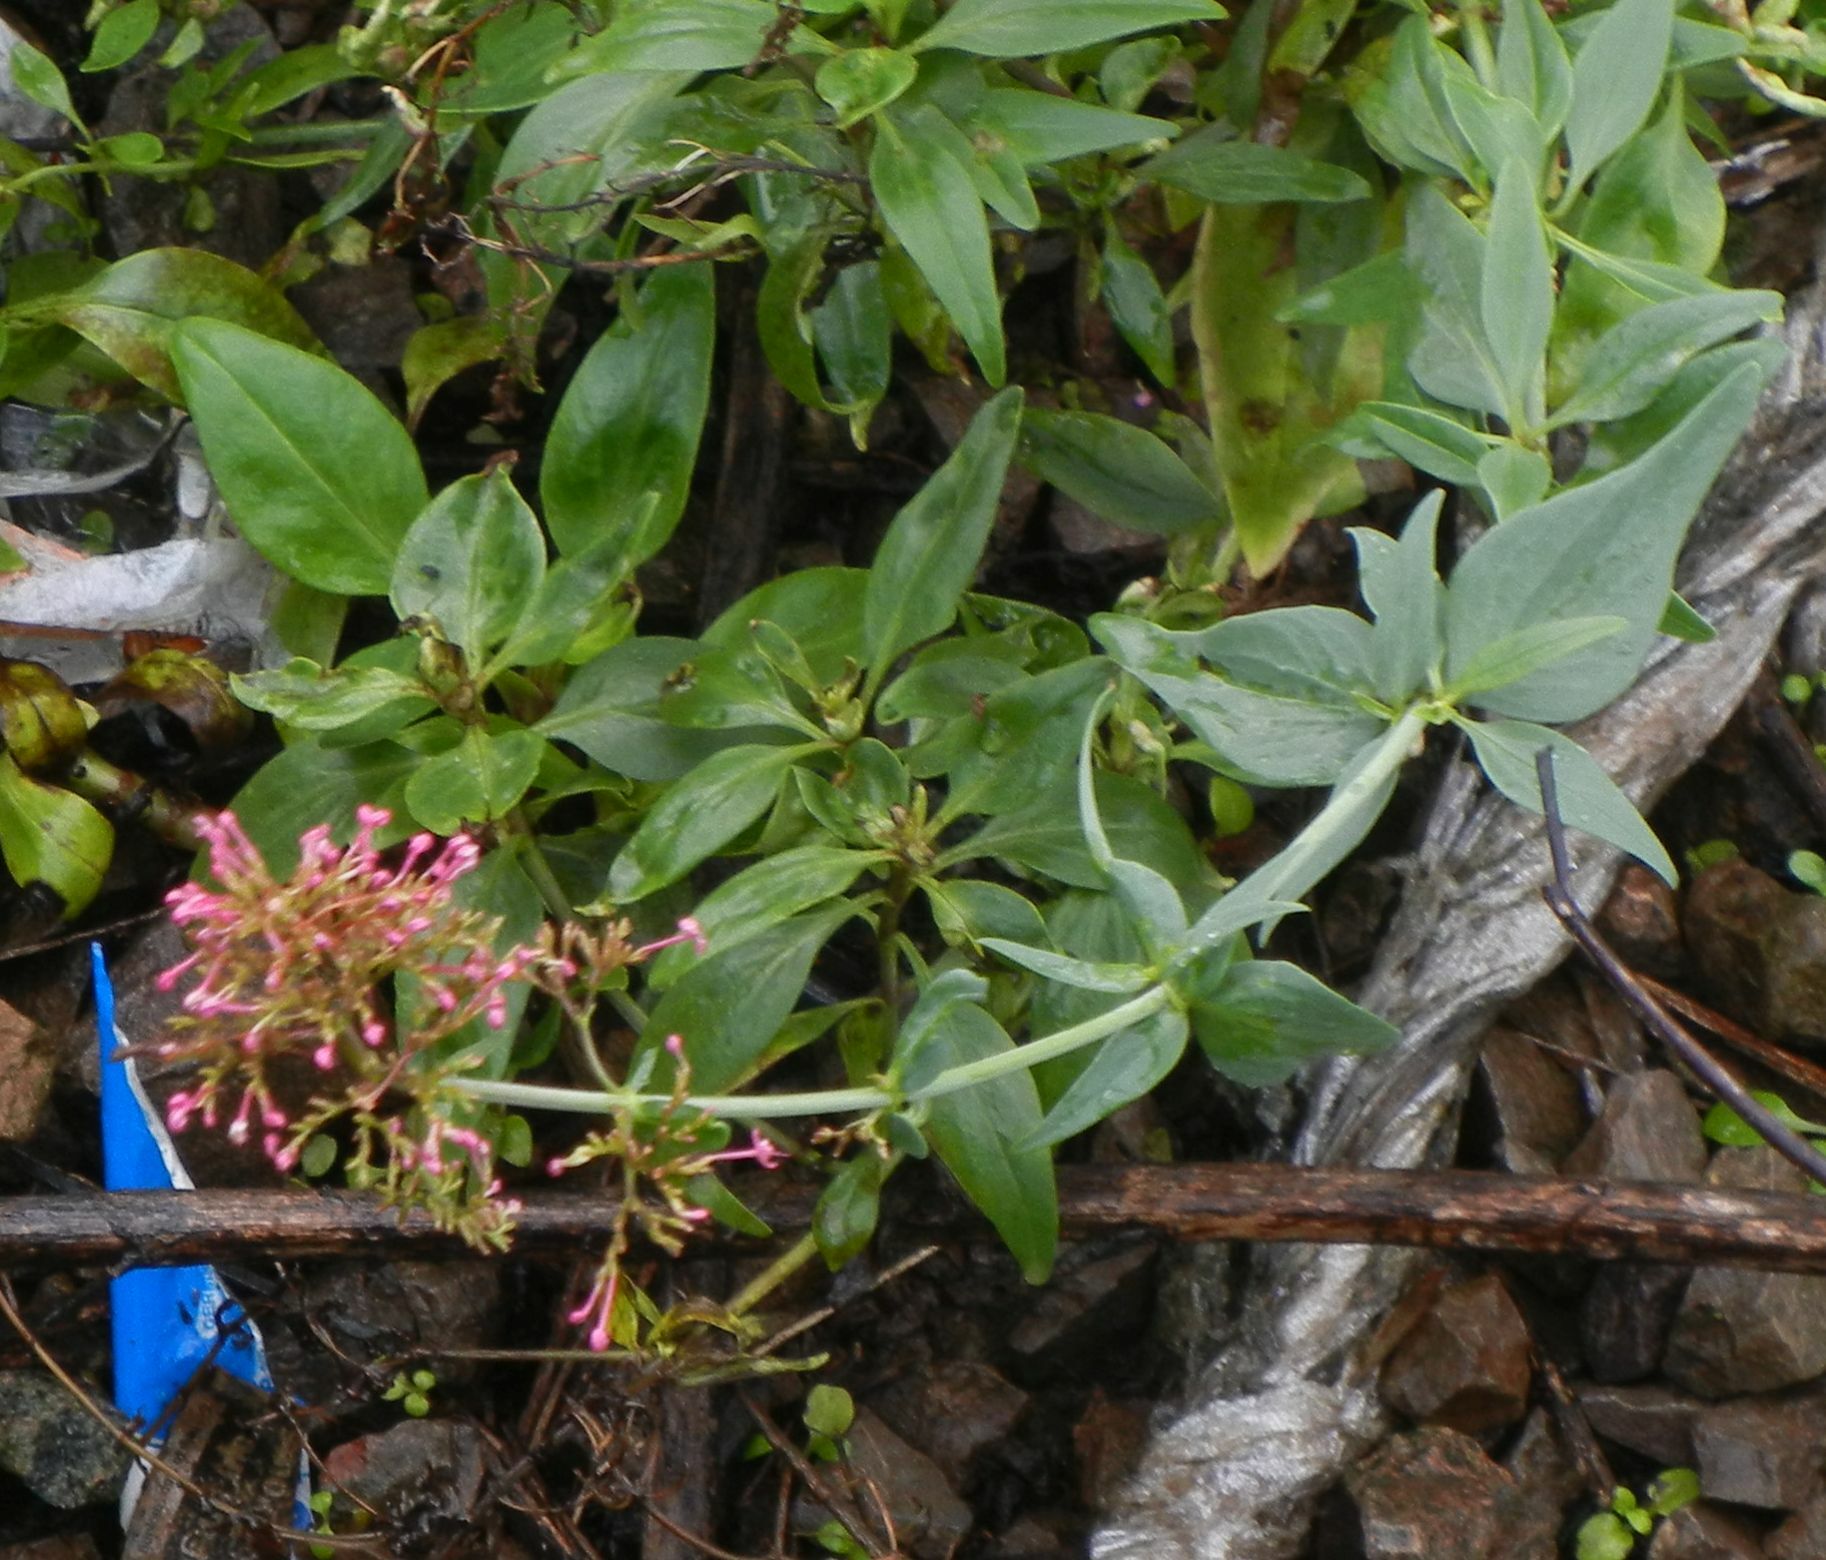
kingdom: Plantae
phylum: Tracheophyta
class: Magnoliopsida
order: Dipsacales
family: Caprifoliaceae
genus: Centranthus
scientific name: Centranthus ruber
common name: Red valerian
